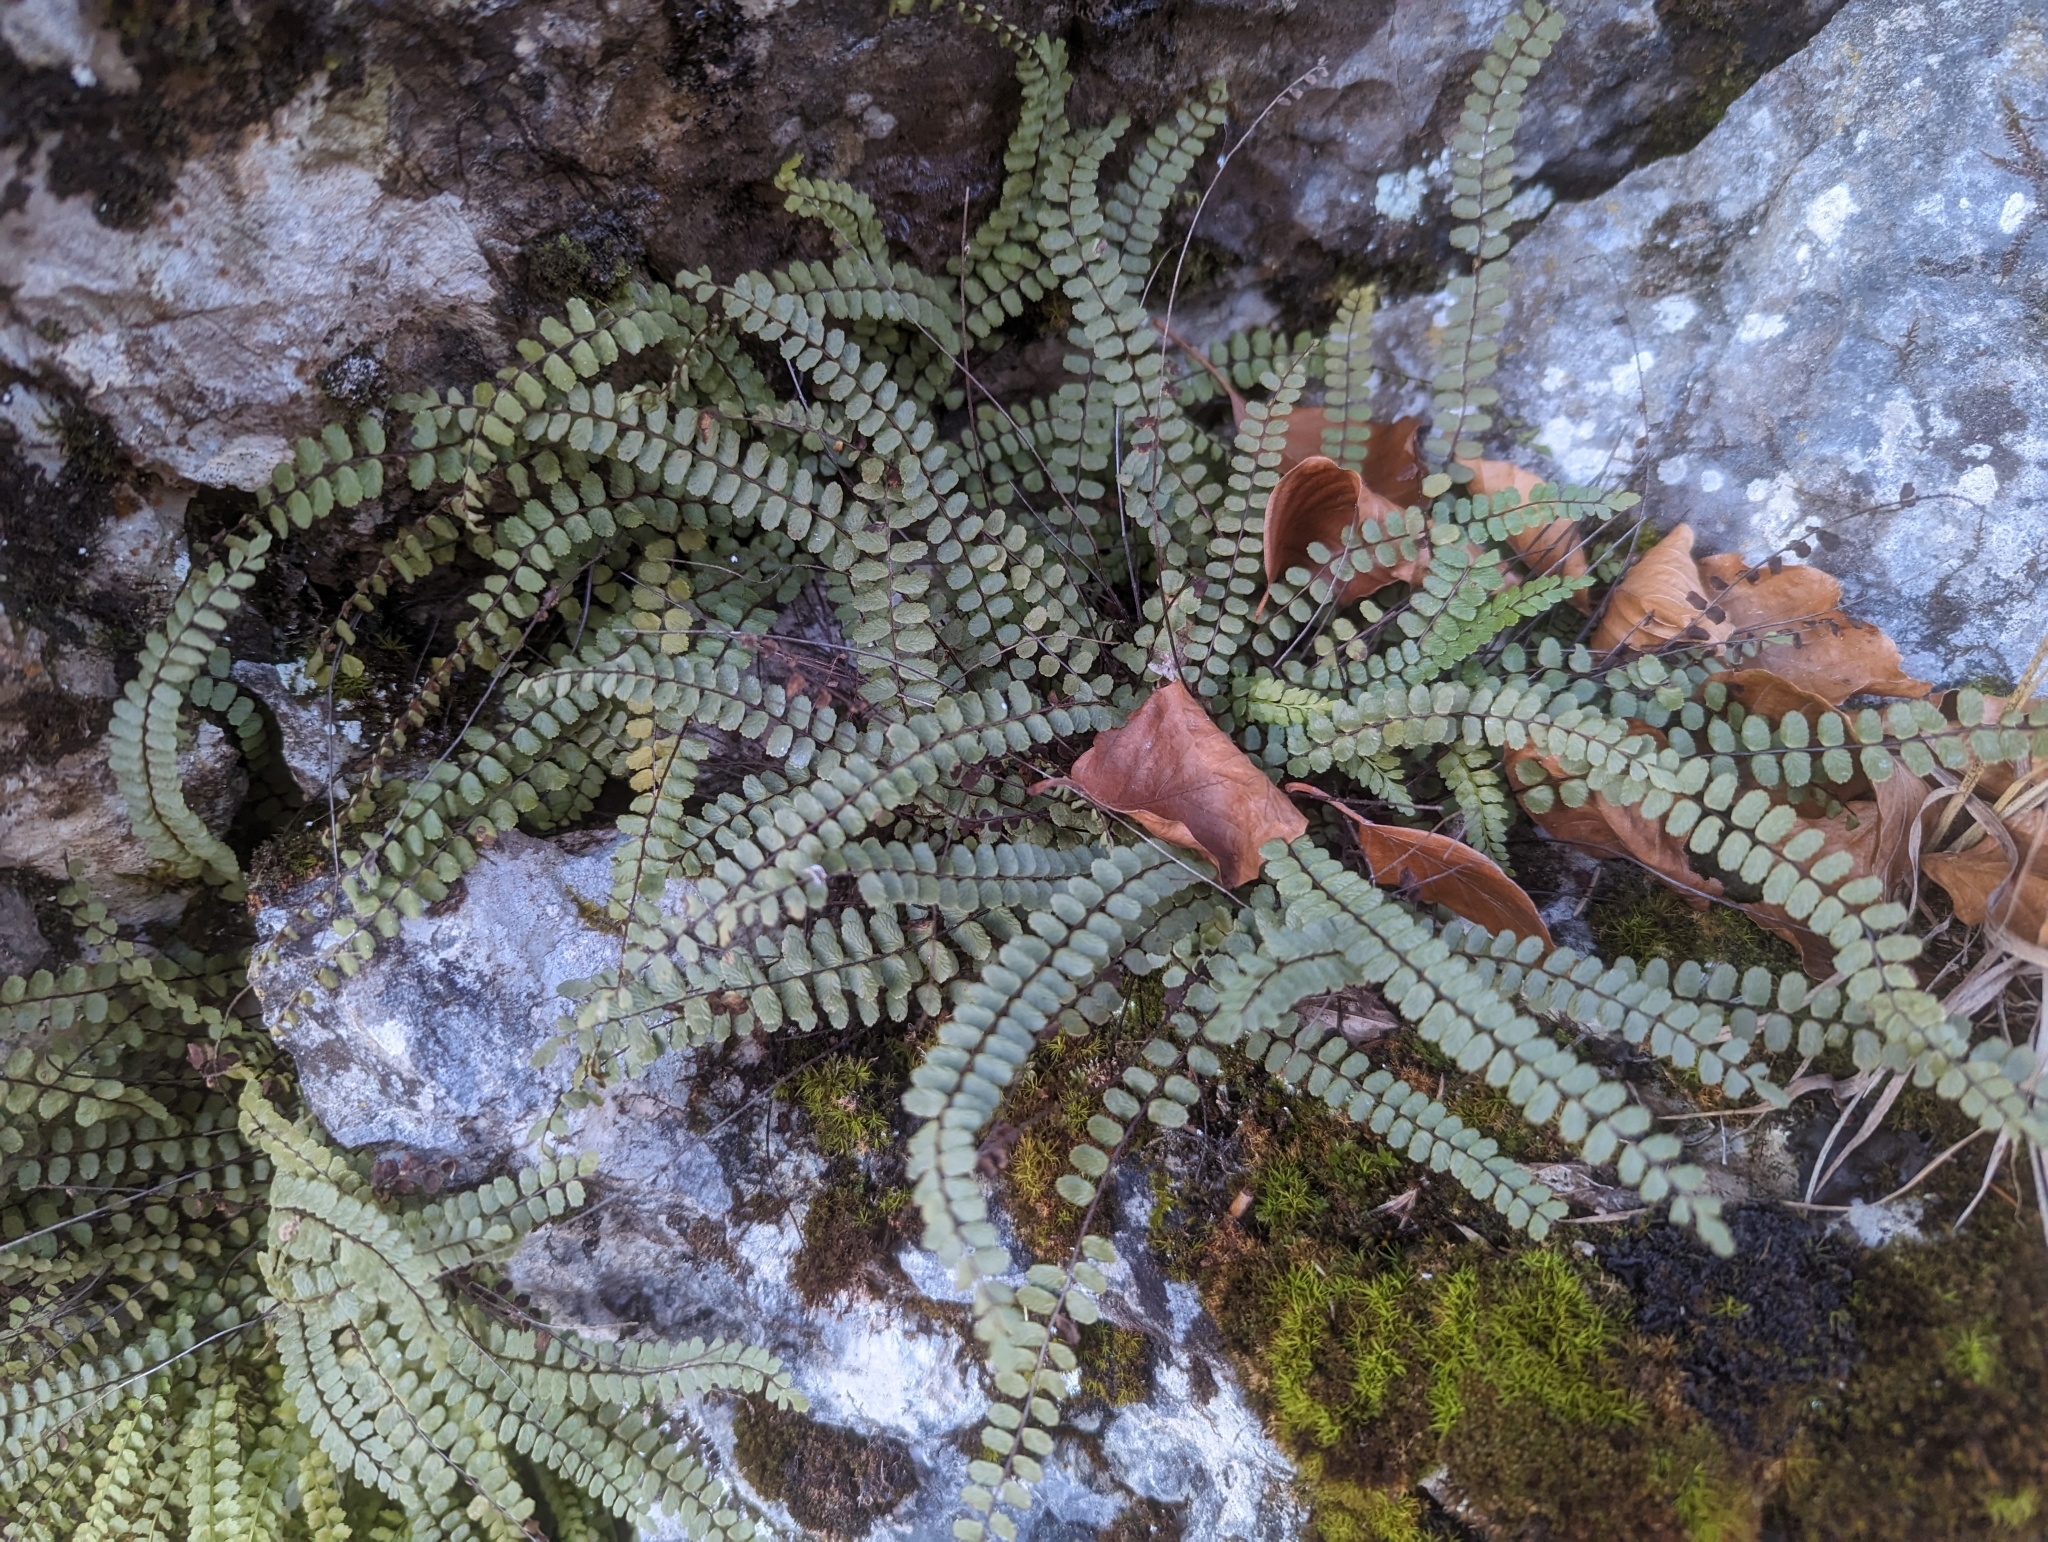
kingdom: Plantae
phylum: Tracheophyta
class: Polypodiopsida
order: Polypodiales
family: Aspleniaceae
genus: Asplenium
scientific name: Asplenium trichomanes
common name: Maidenhair spleenwort
